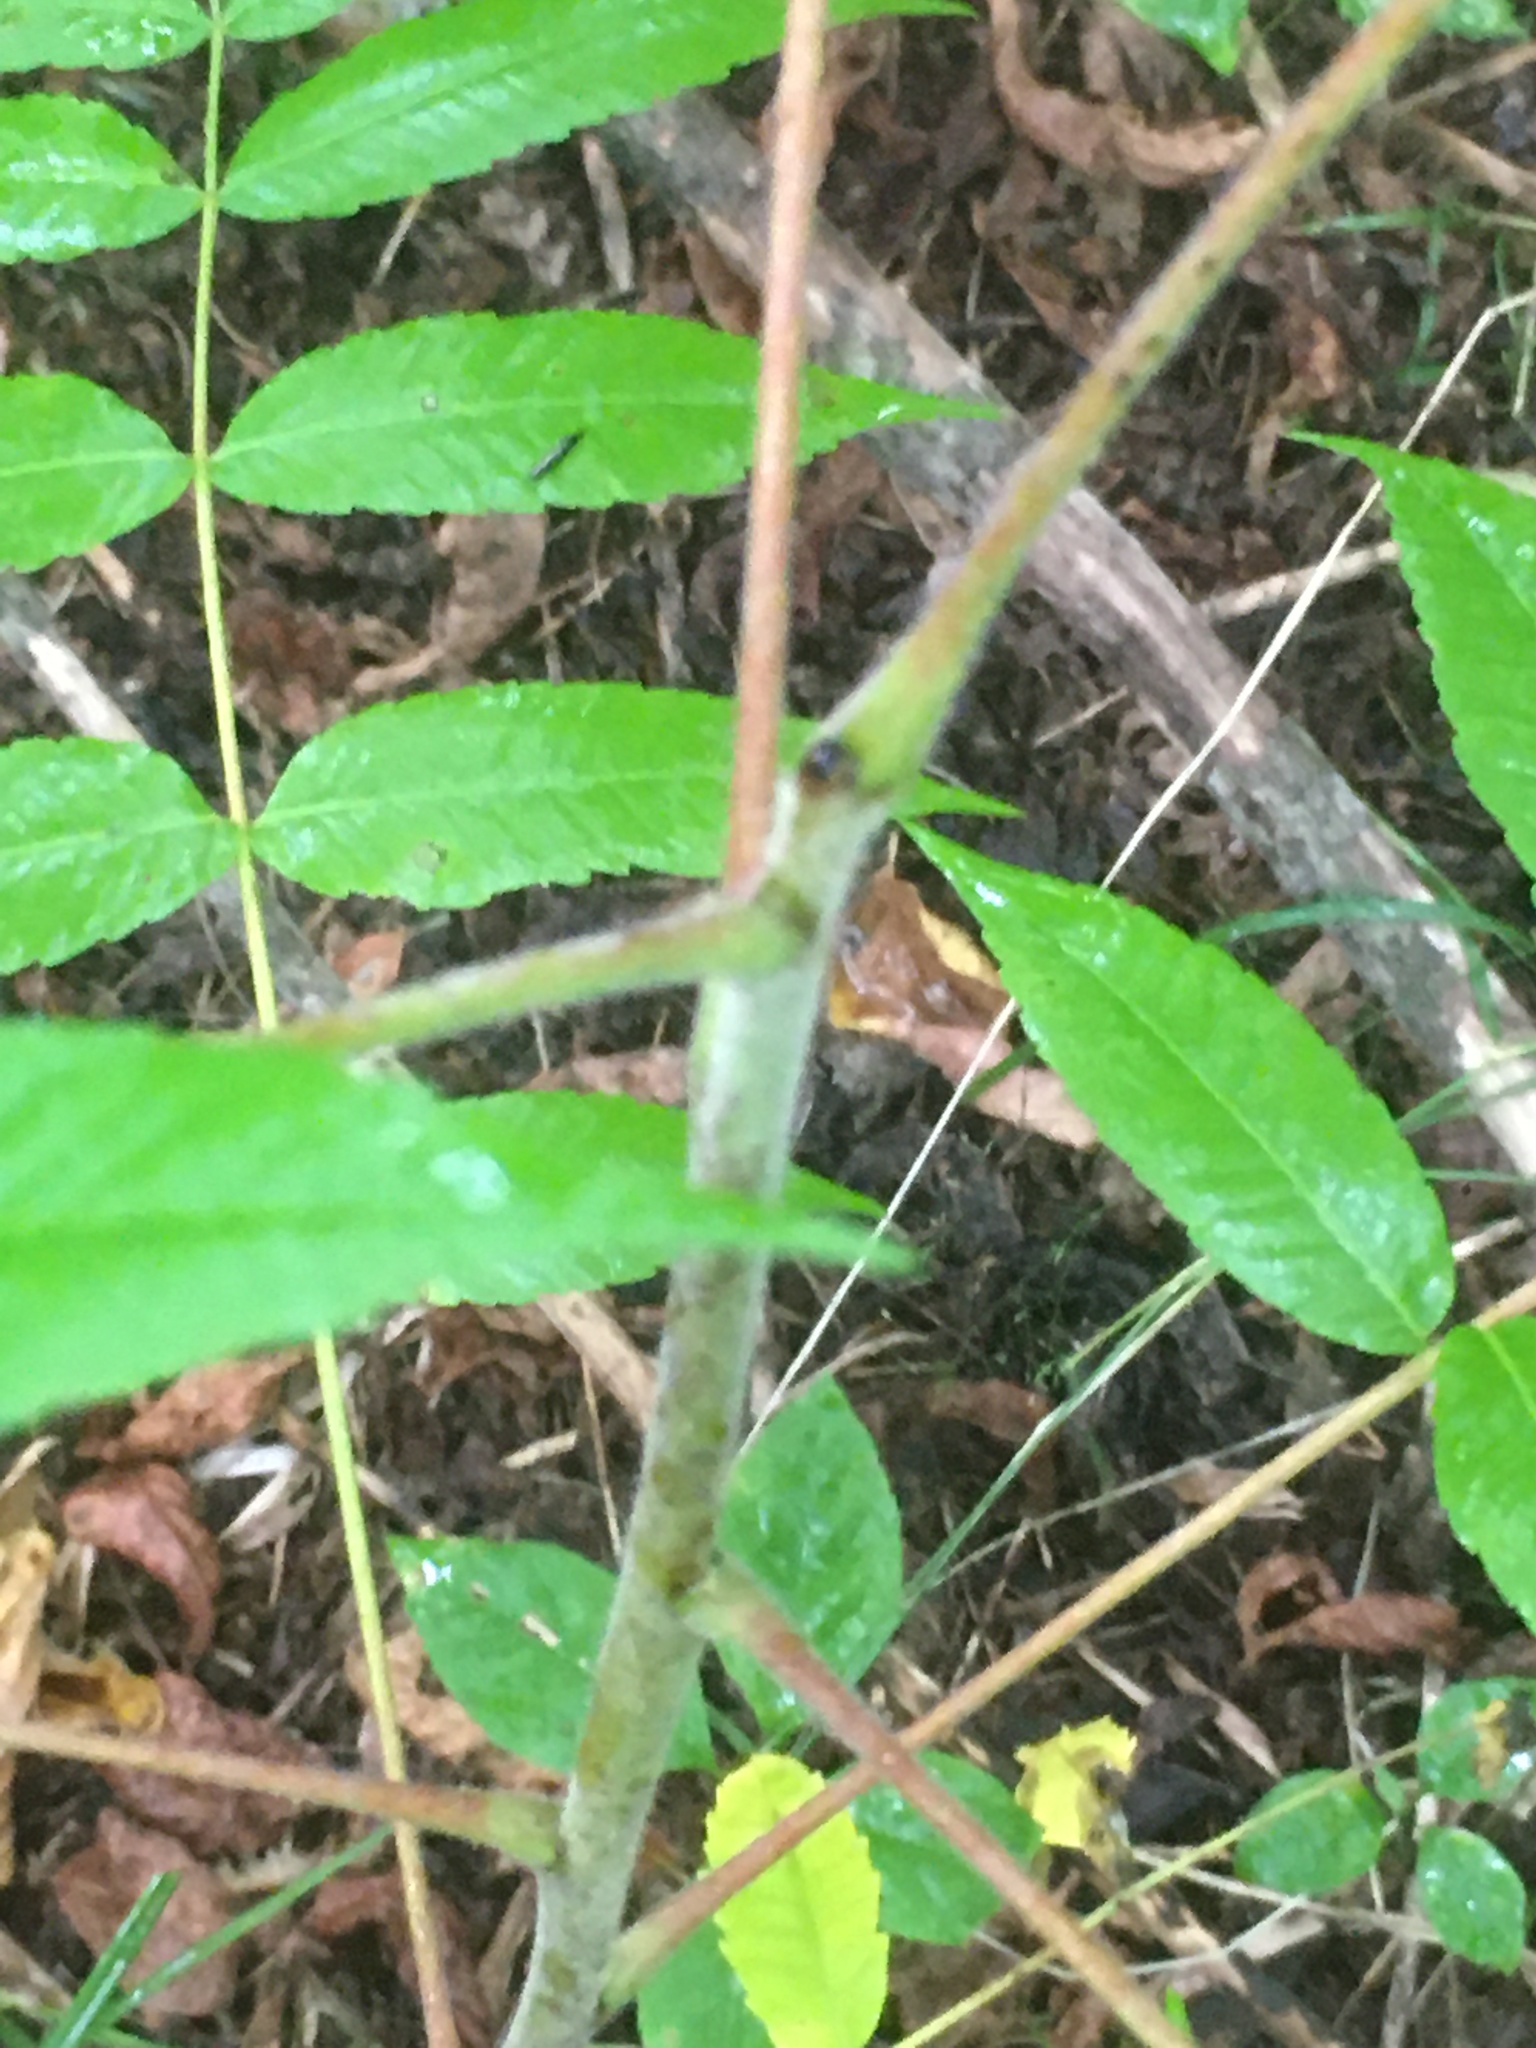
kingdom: Plantae
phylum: Tracheophyta
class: Magnoliopsida
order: Sapindales
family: Anacardiaceae
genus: Rhus
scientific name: Rhus typhina
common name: Staghorn sumac
